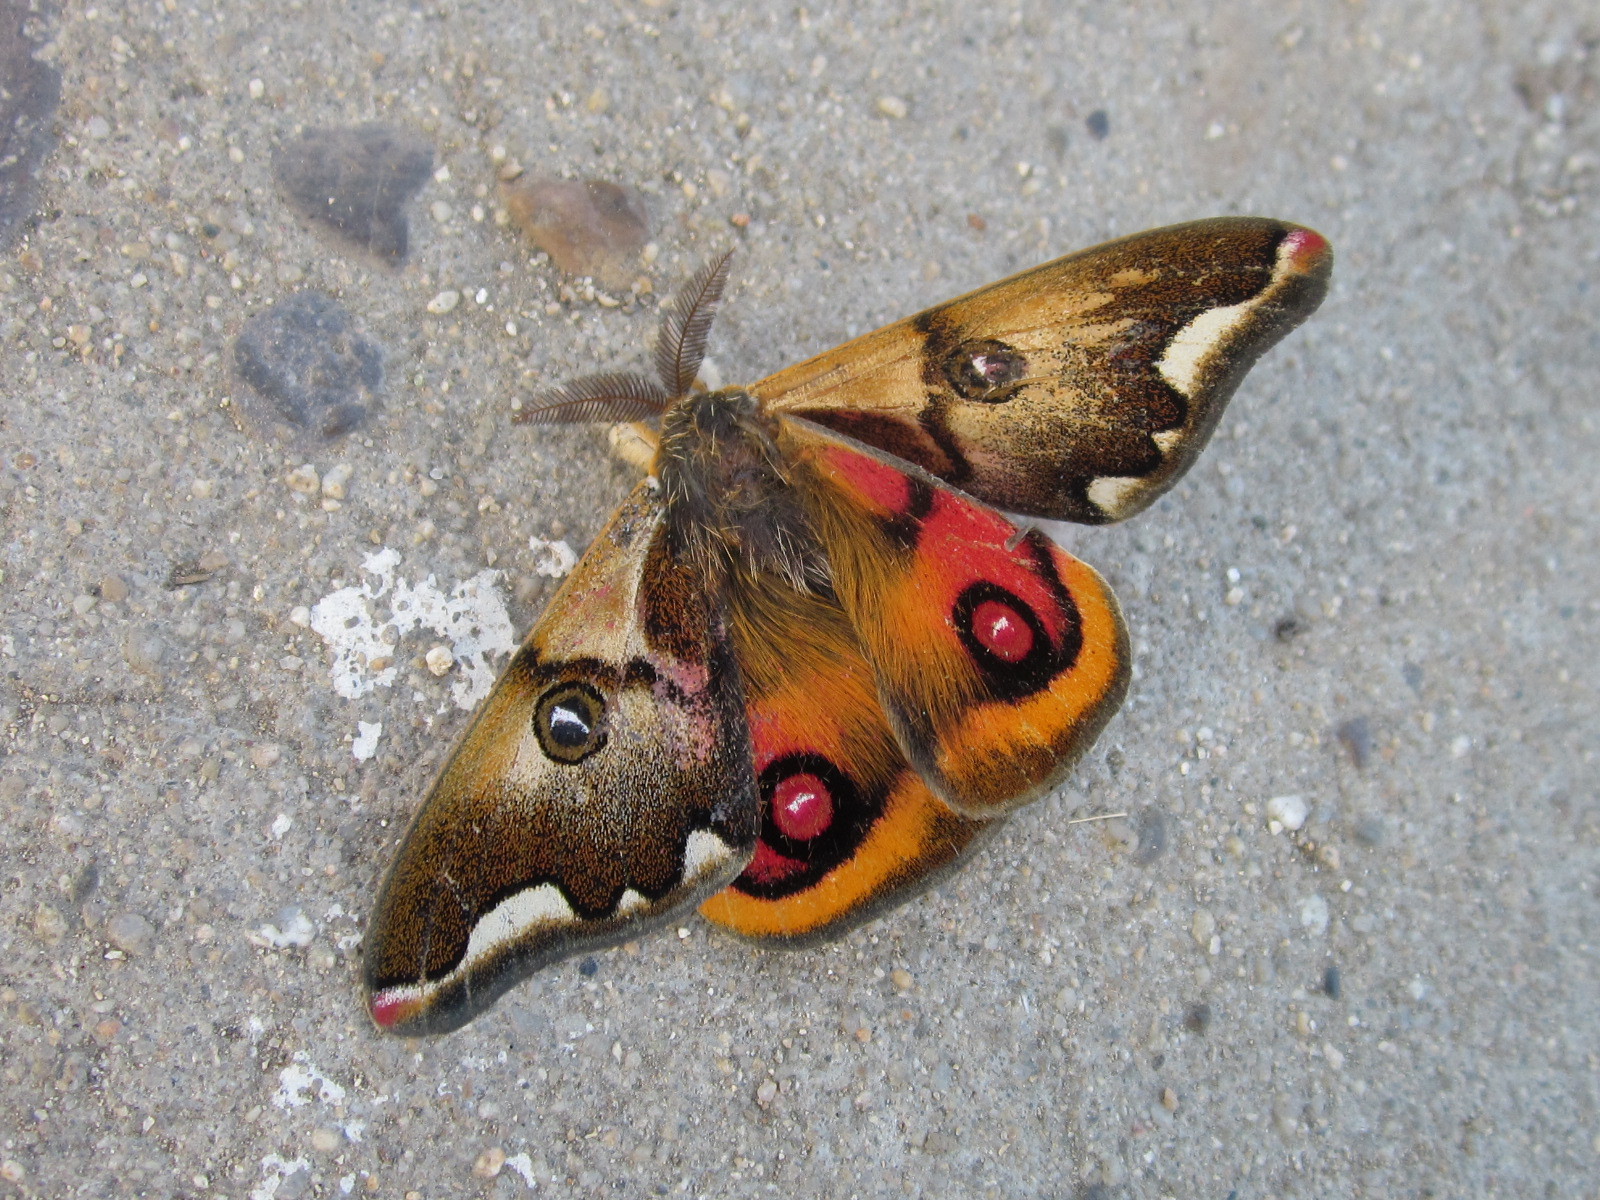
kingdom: Animalia
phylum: Arthropoda
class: Insecta
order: Lepidoptera
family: Saturniidae
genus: Polythysana
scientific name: Polythysana cinerascens
